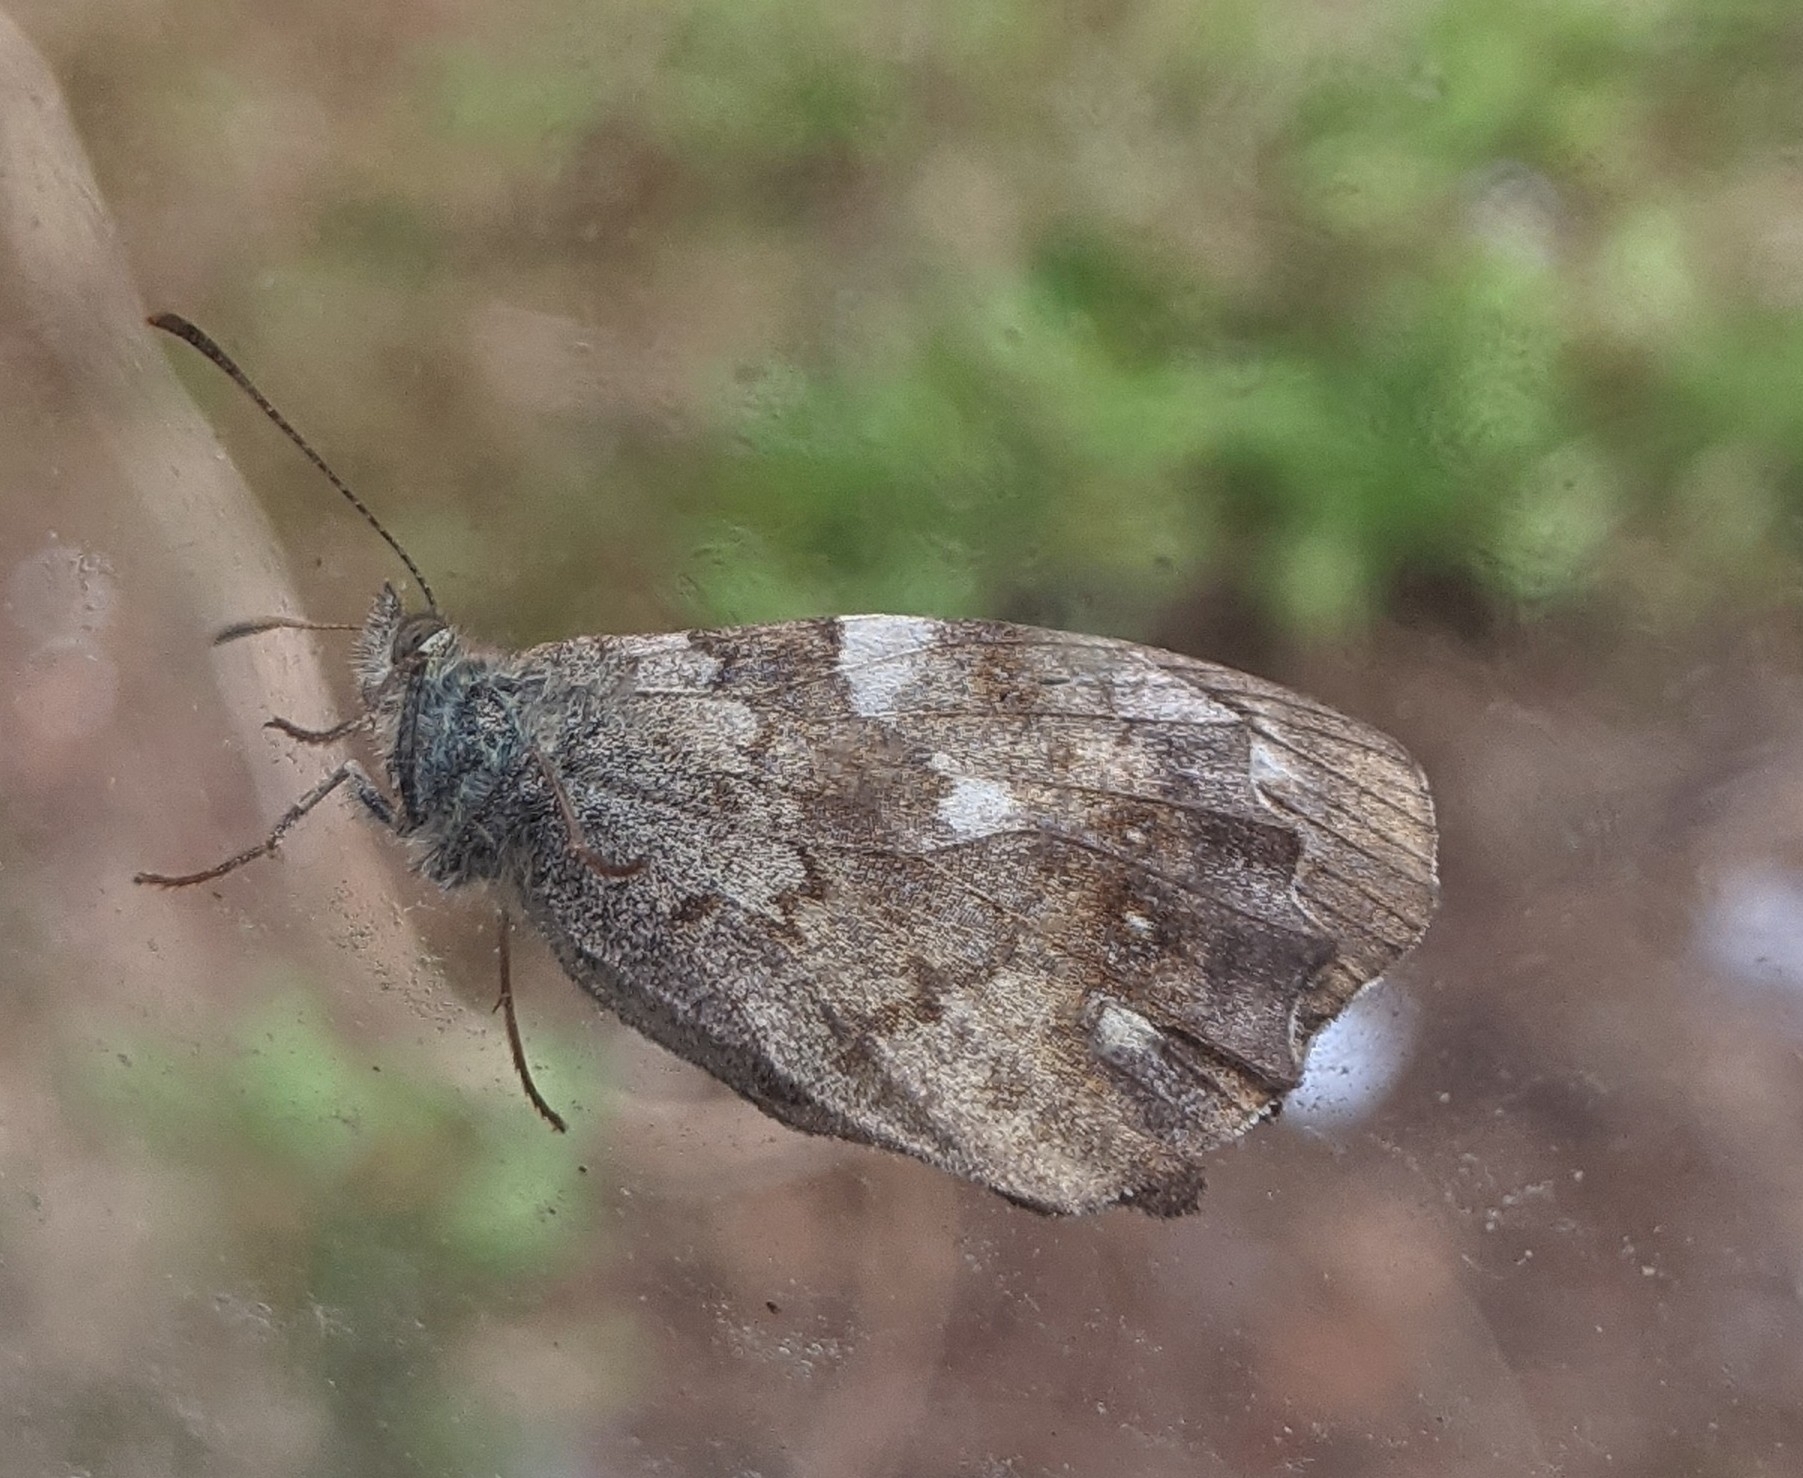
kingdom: Animalia
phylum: Arthropoda
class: Insecta
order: Lepidoptera
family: Nymphalidae
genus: Pararge
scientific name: Pararge aegeria
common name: Speckled wood
